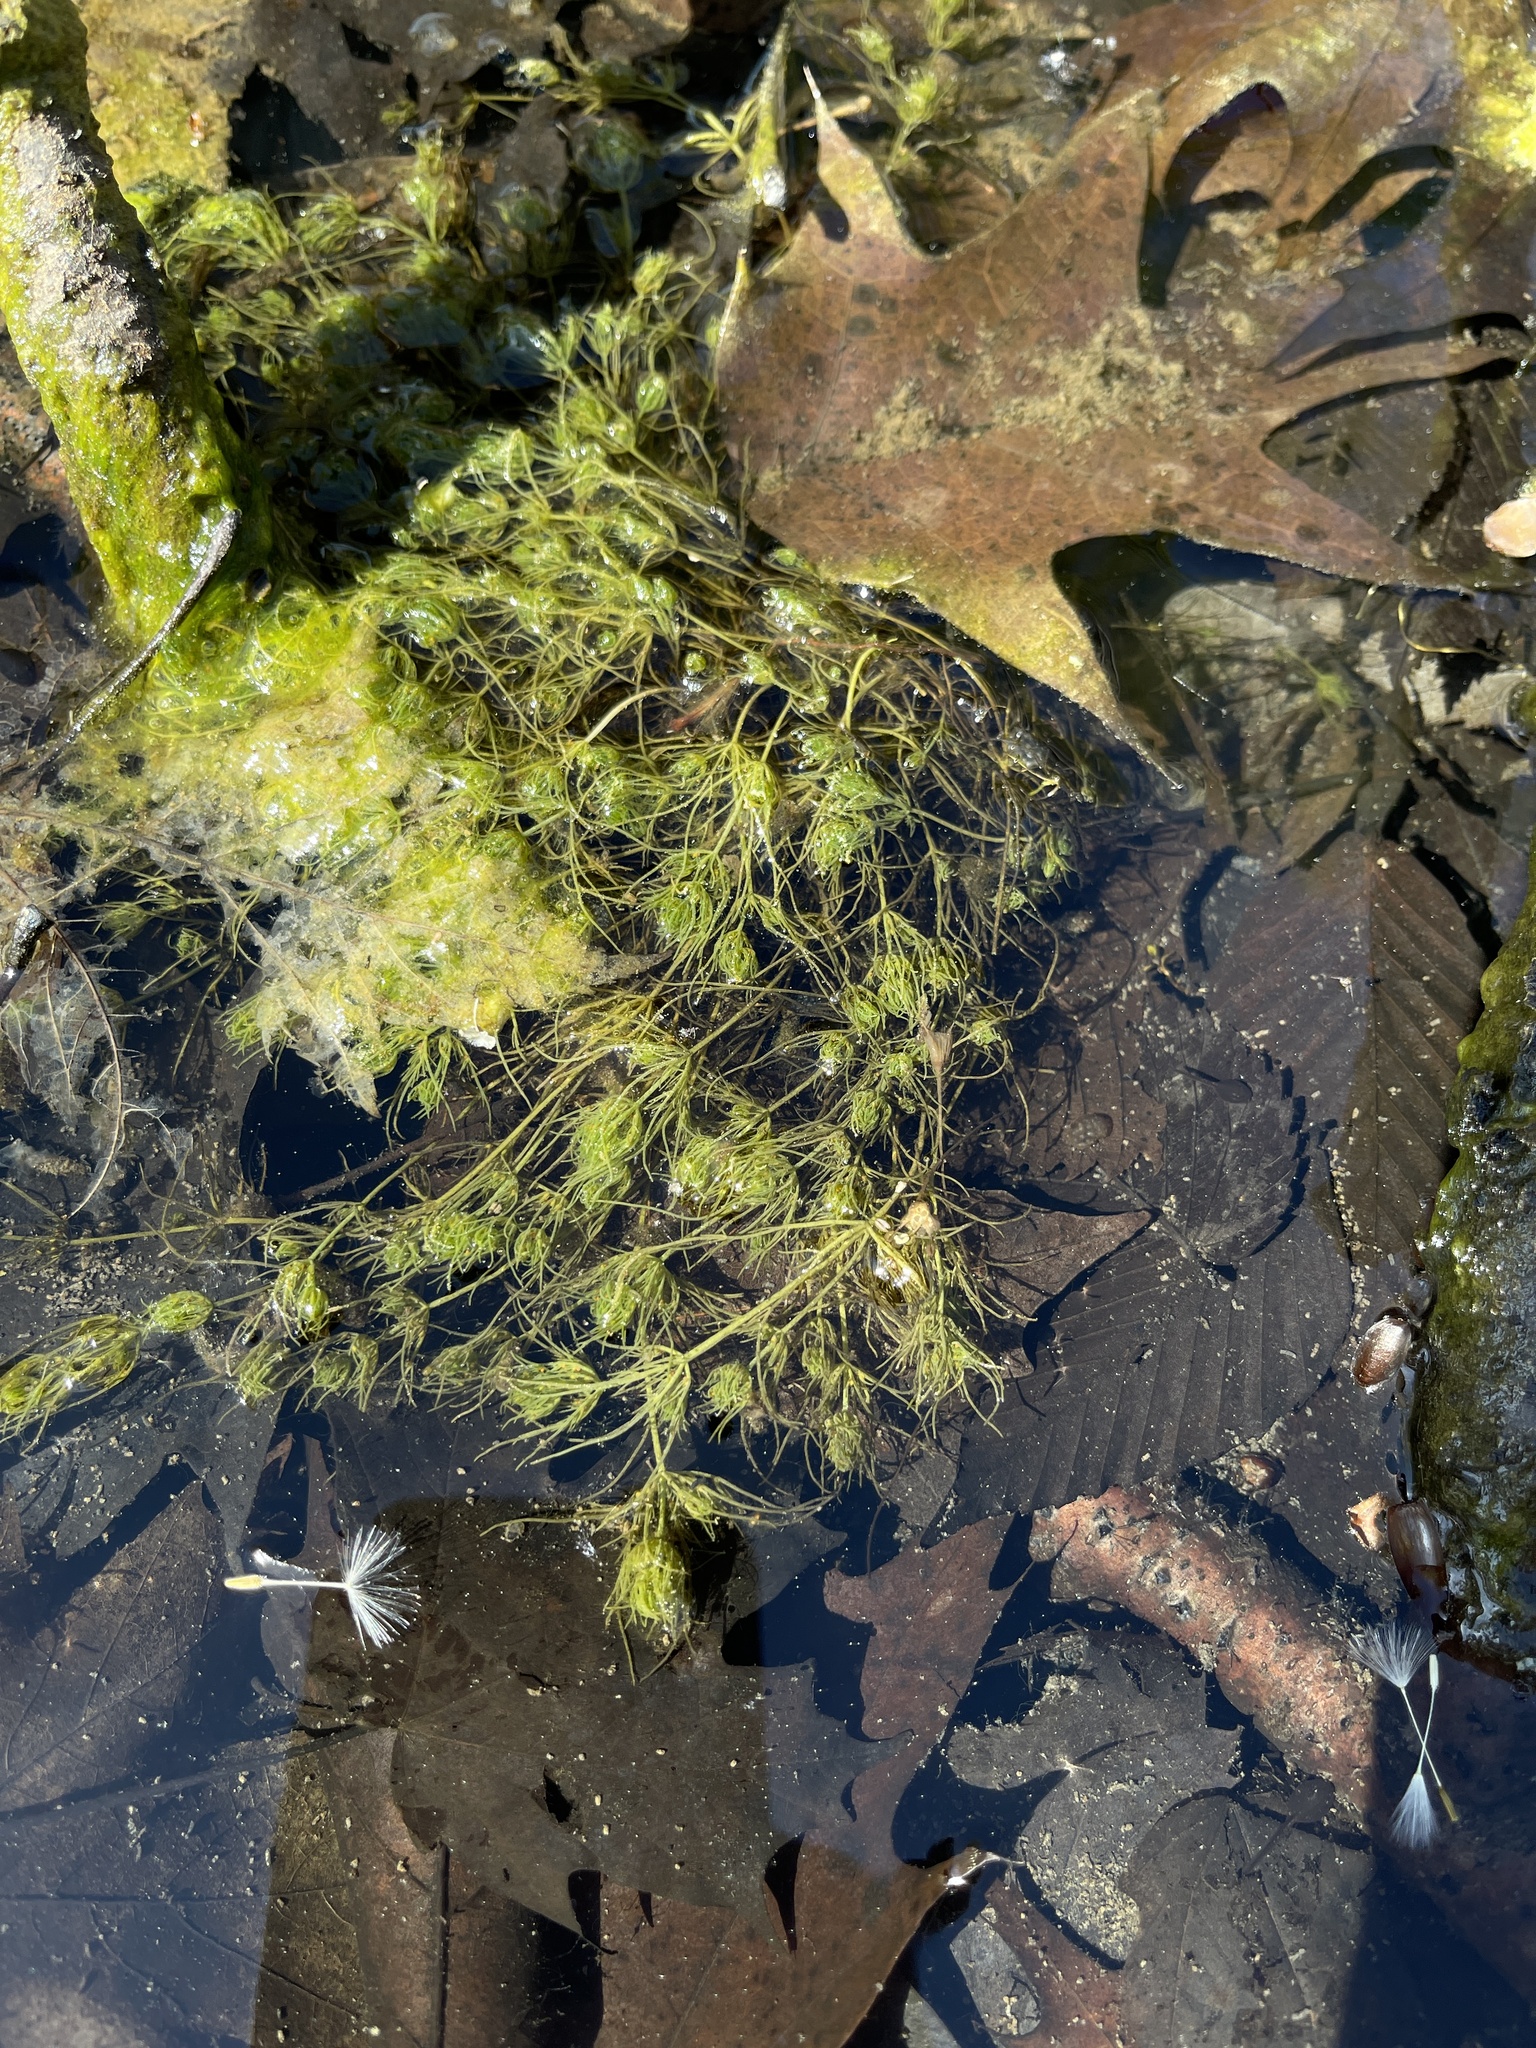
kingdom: Plantae
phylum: Charophyta
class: Charophyceae
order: Charales
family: Characeae
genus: Chara
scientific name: Chara vulgaris
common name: Common stonewort
